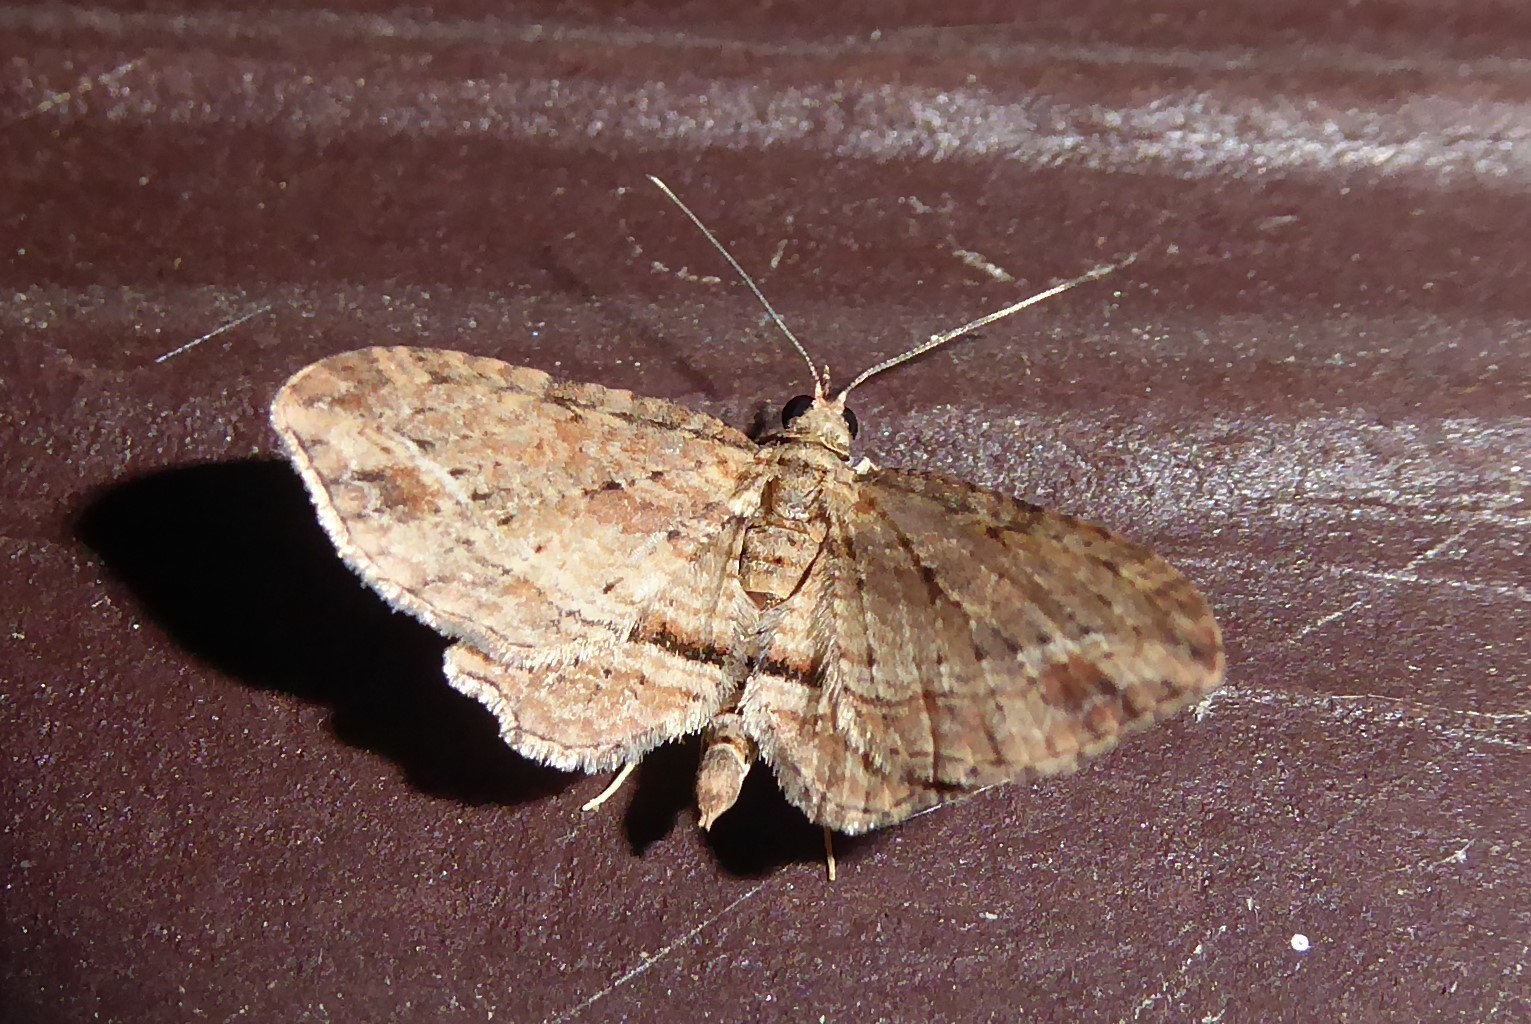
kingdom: Animalia
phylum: Arthropoda
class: Insecta
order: Lepidoptera
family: Geometridae
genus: Chloroclystis
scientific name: Chloroclystis filata
